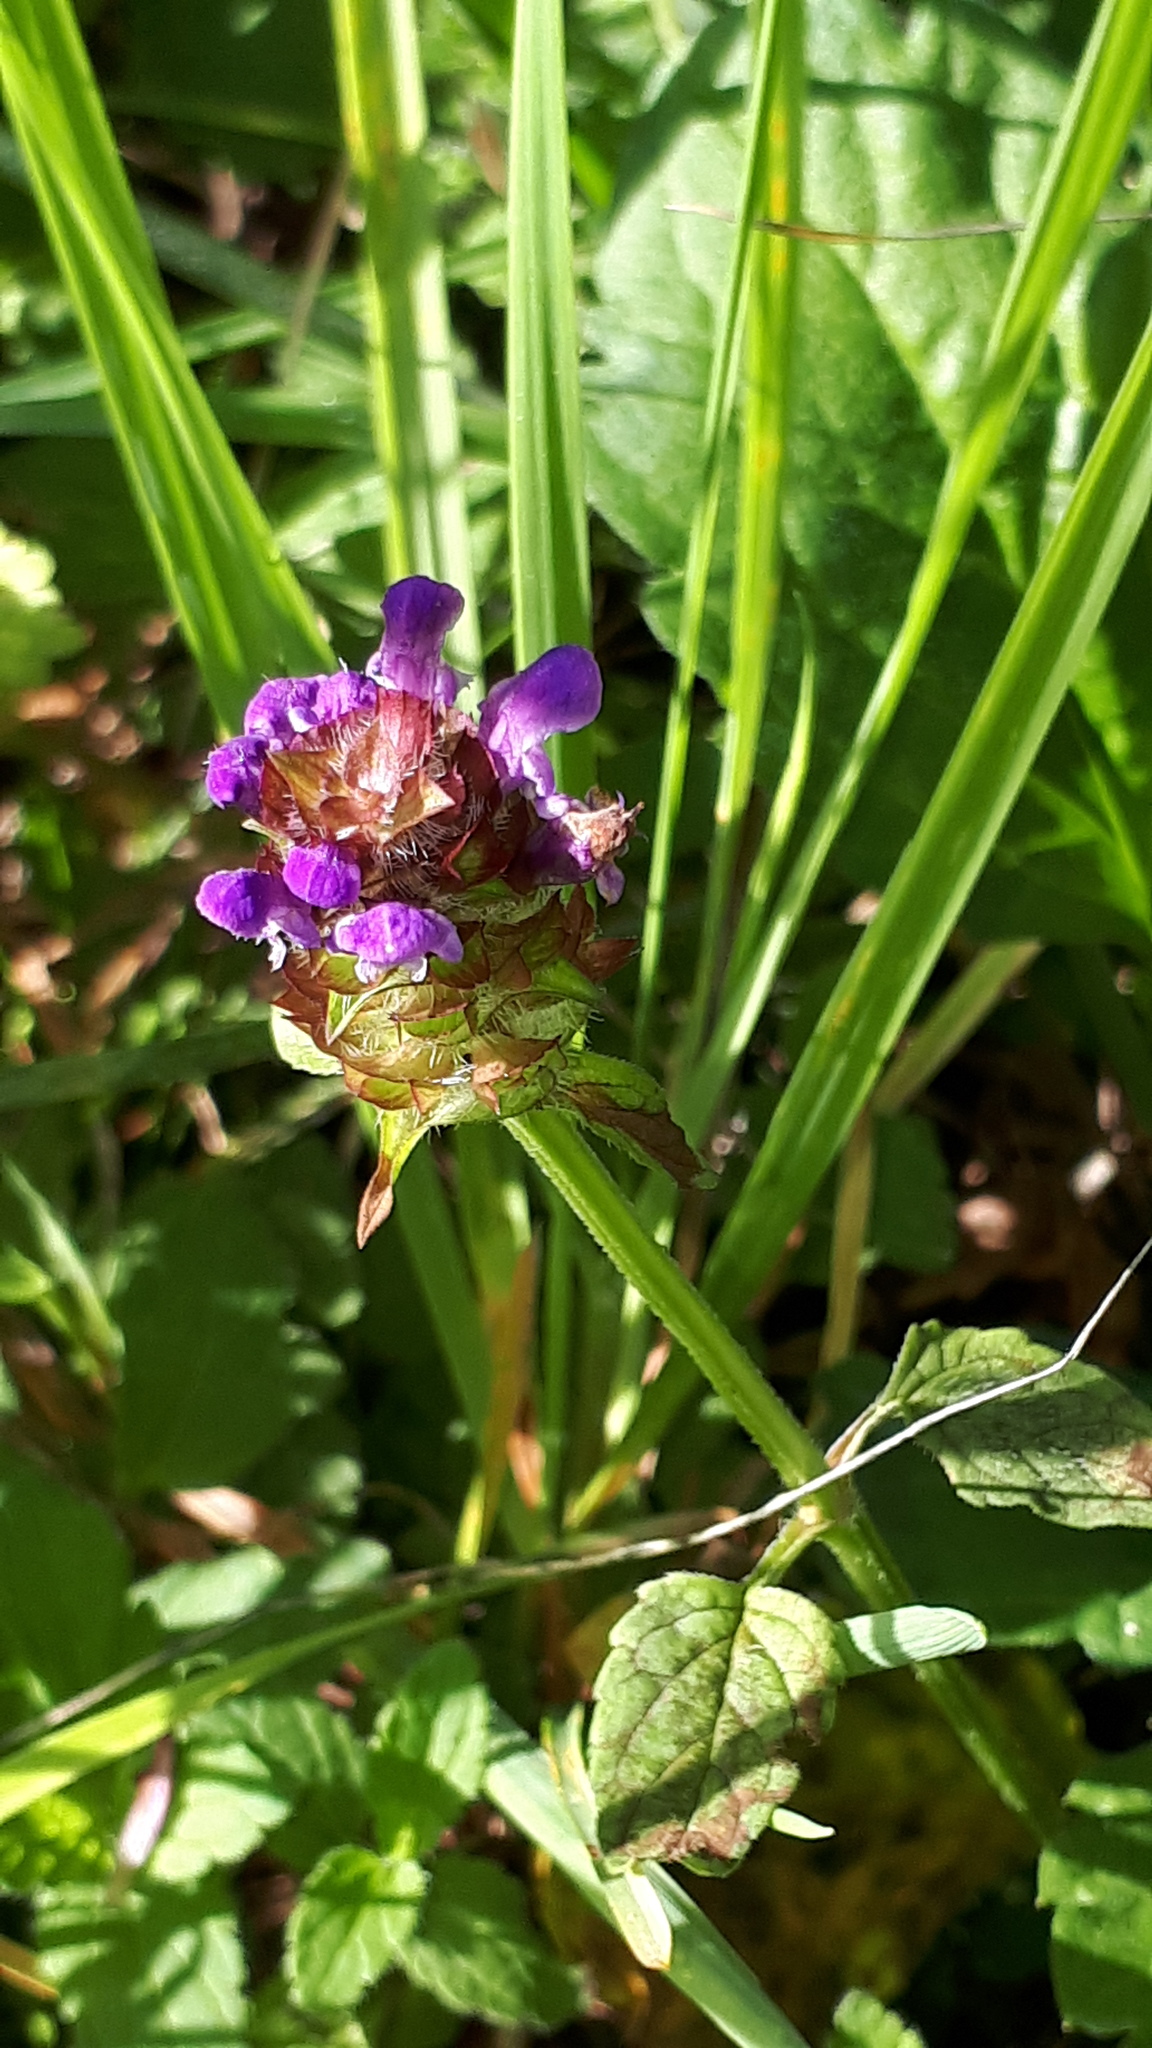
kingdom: Plantae
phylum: Tracheophyta
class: Magnoliopsida
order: Lamiales
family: Lamiaceae
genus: Prunella
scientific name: Prunella vulgaris
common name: Heal-all
